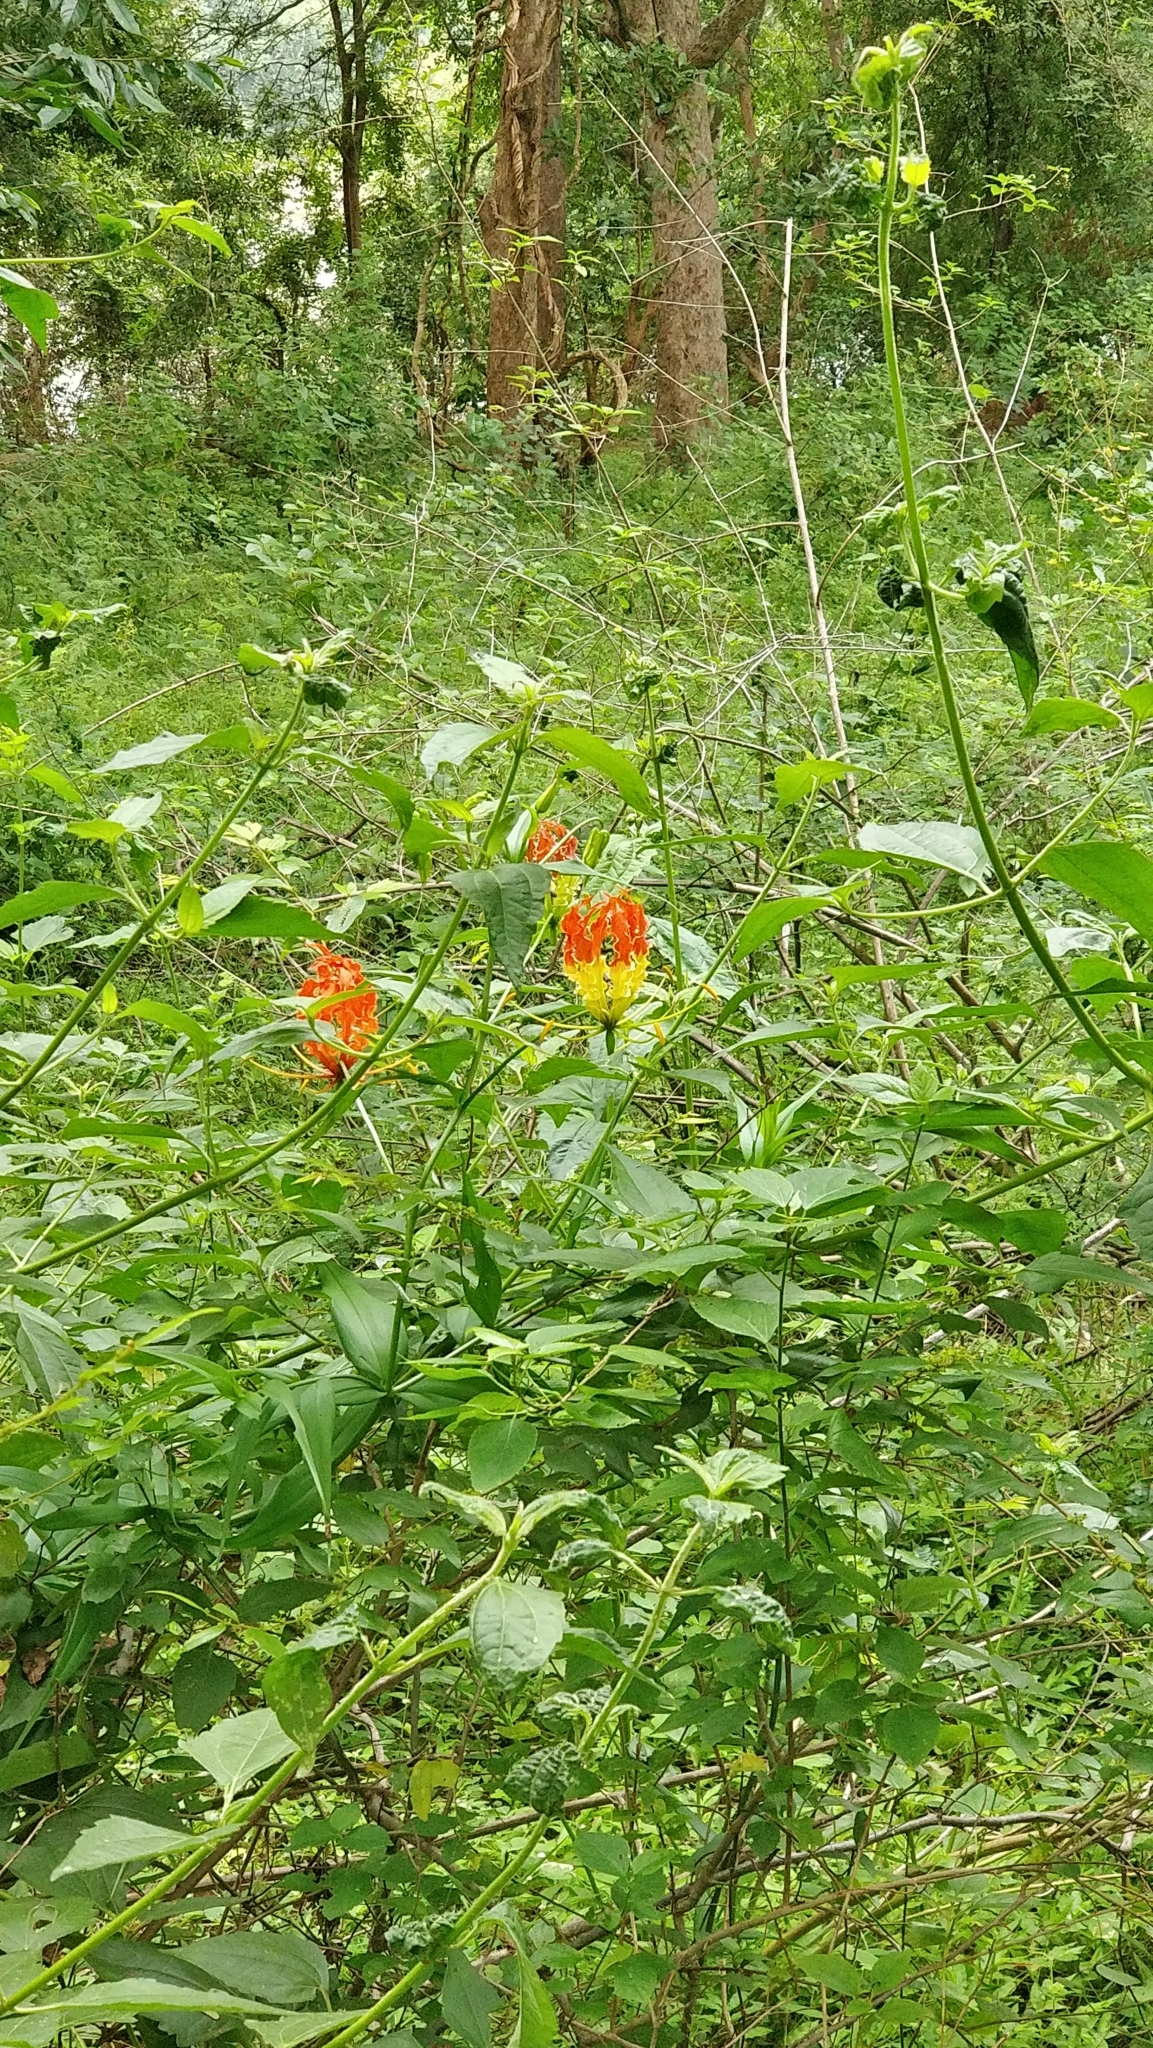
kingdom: Plantae
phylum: Tracheophyta
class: Liliopsida
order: Liliales
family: Colchicaceae
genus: Gloriosa
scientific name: Gloriosa superba
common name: Flame lily
